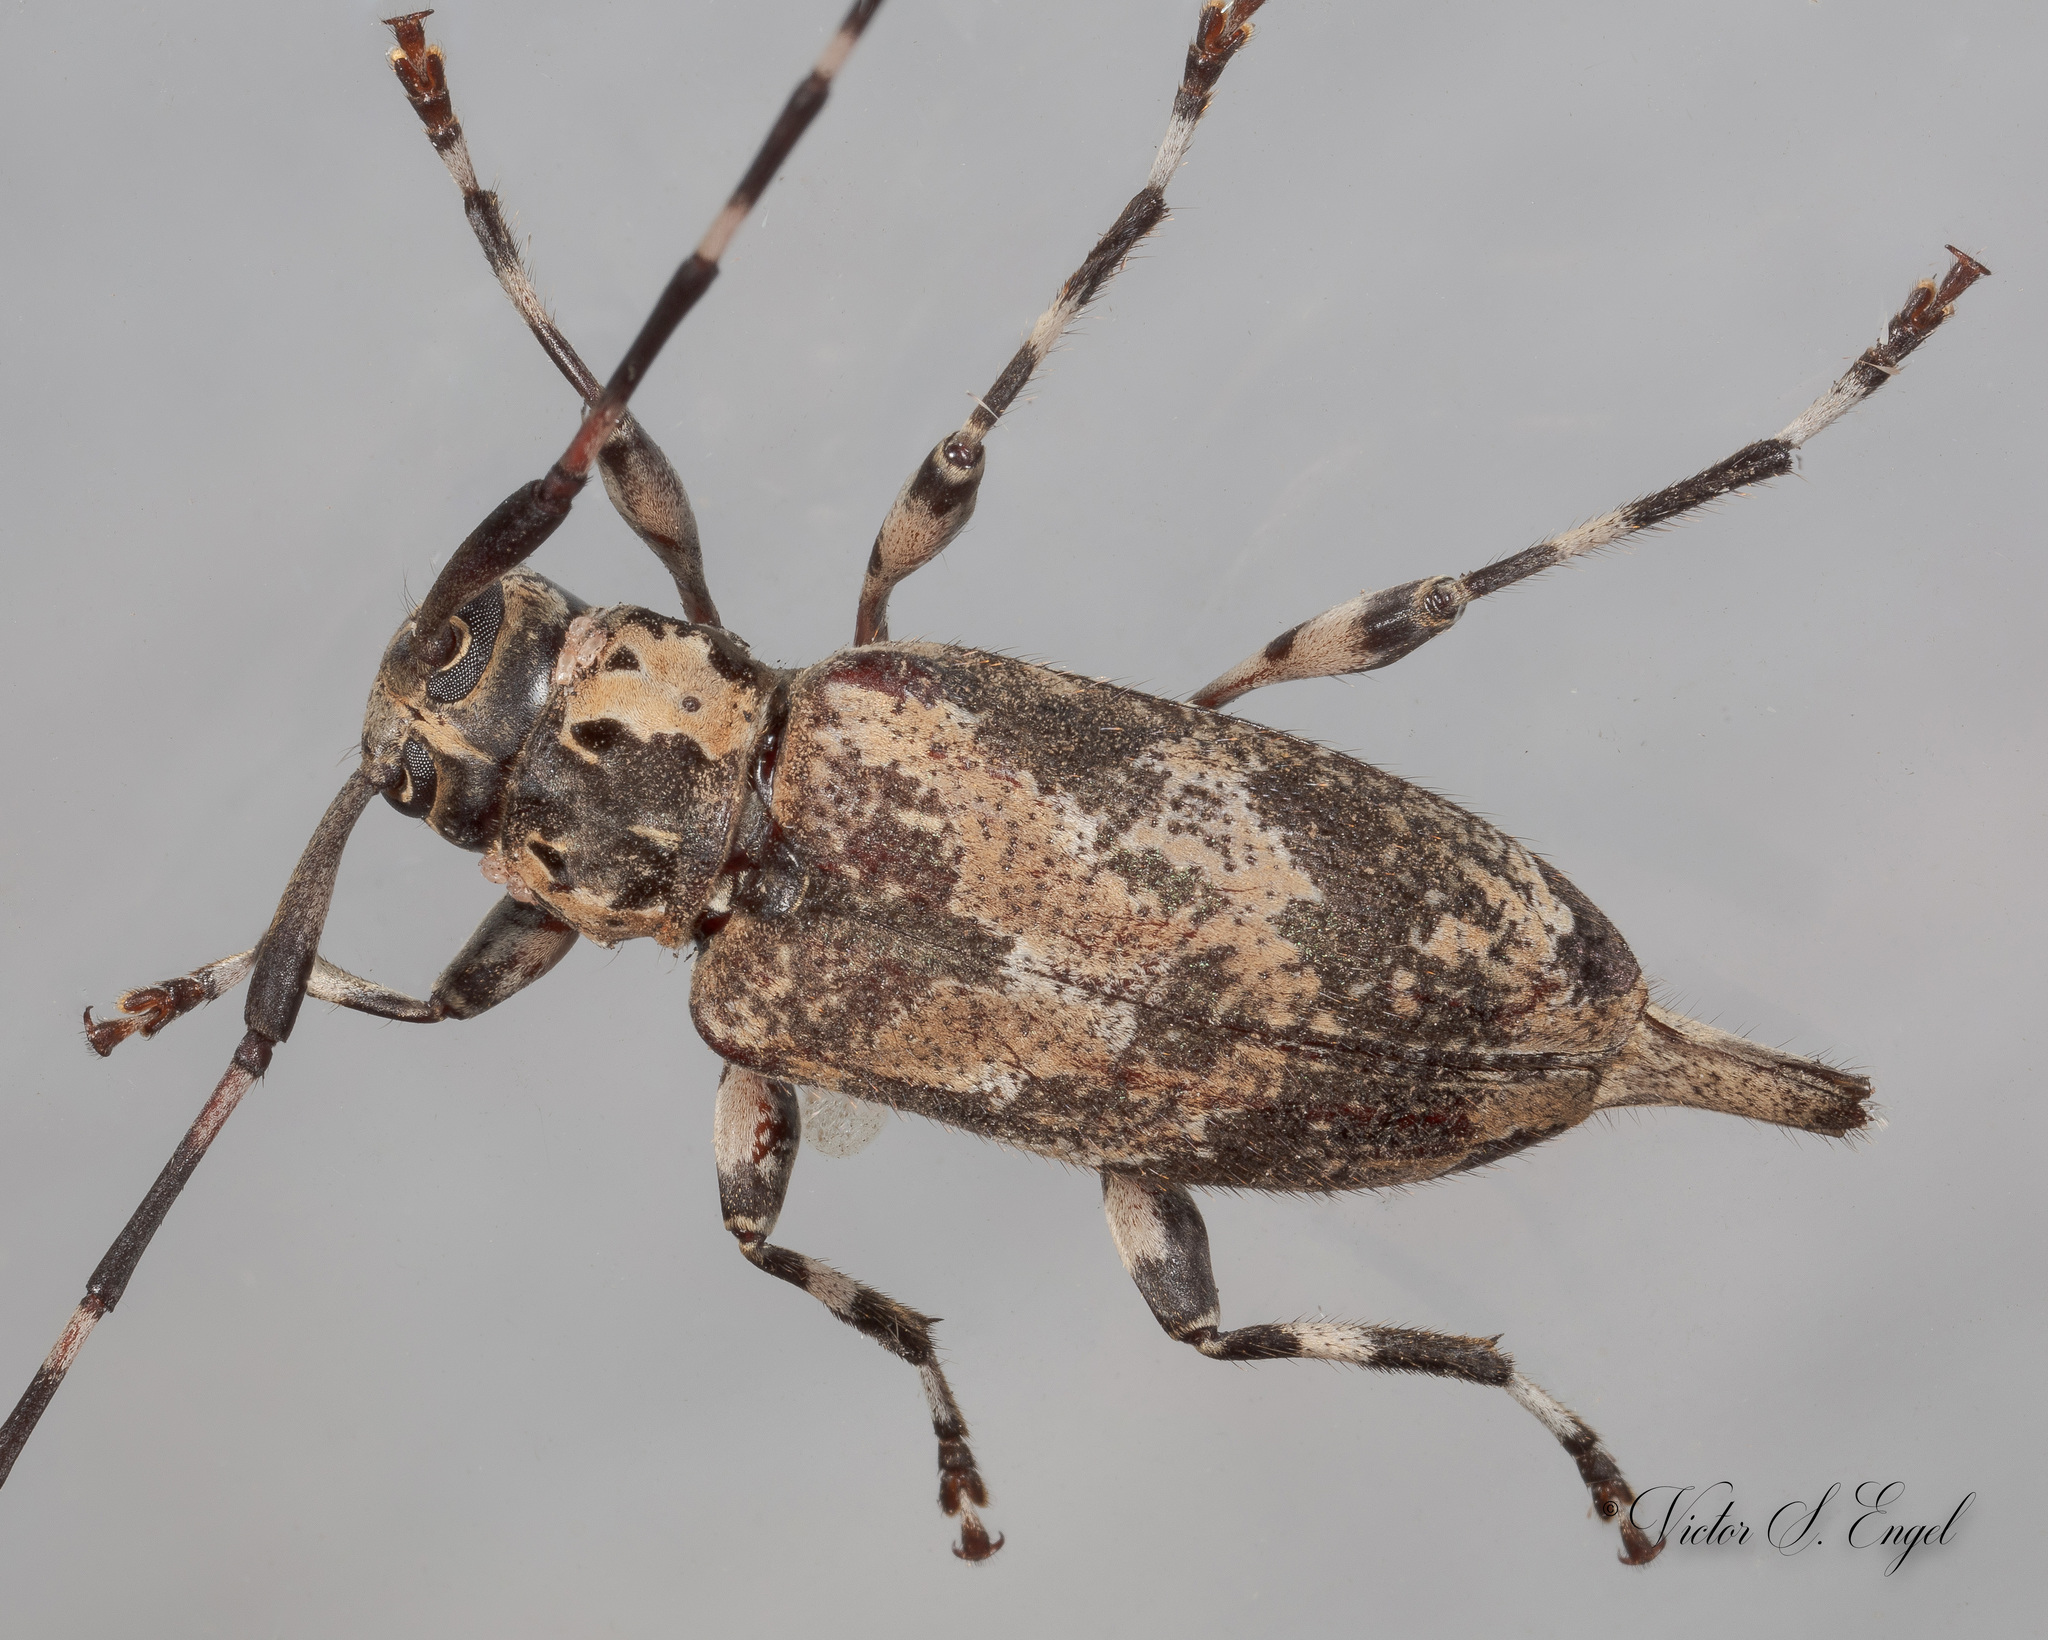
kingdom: Animalia
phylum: Arthropoda
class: Insecta
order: Coleoptera
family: Cerambycidae
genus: Graphisurus
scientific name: Graphisurus triangulifer
